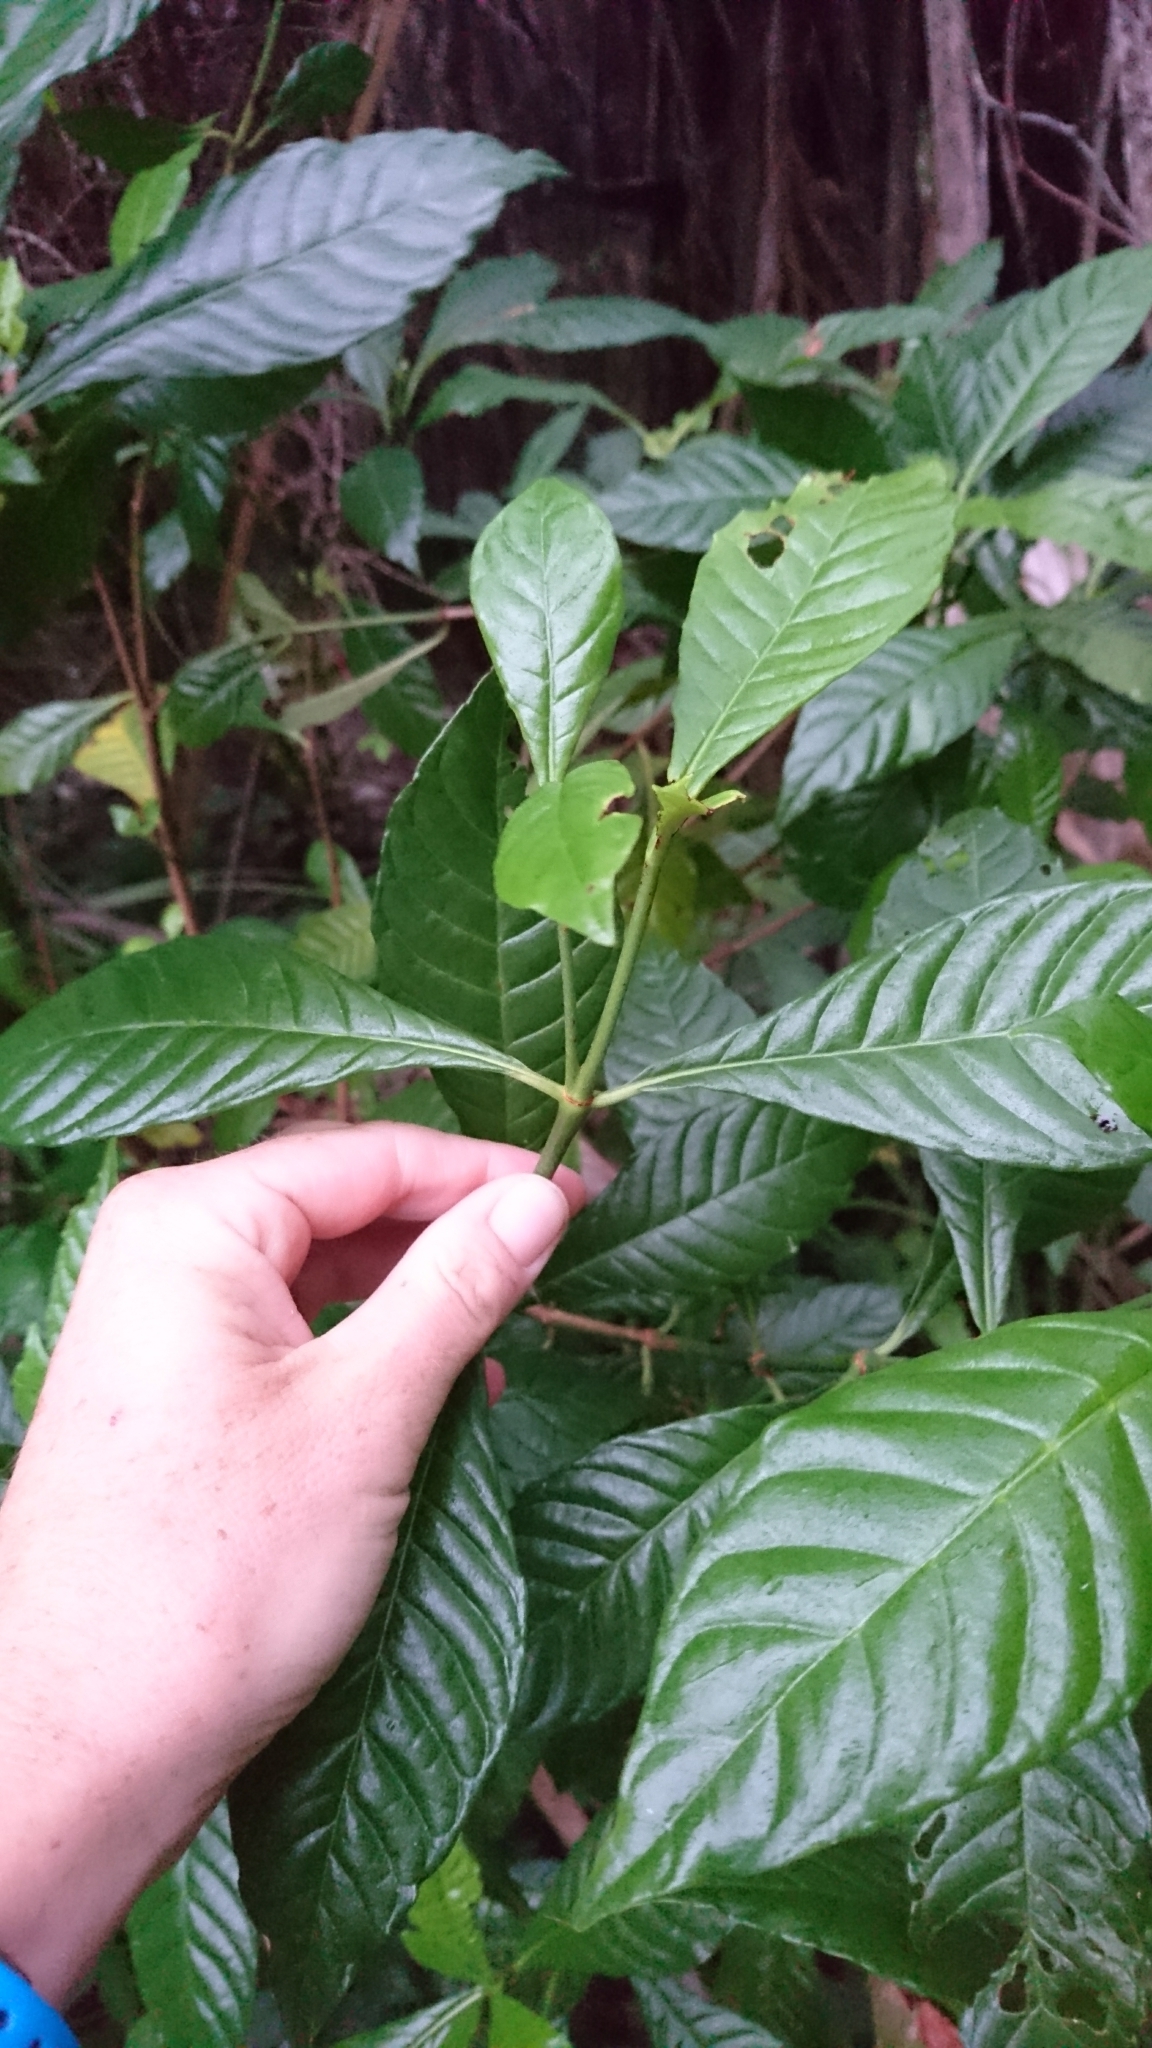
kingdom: Plantae
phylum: Tracheophyta
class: Magnoliopsida
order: Gentianales
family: Rubiaceae
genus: Psychotria
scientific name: Psychotria nervosa
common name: Bastard cankerberry
